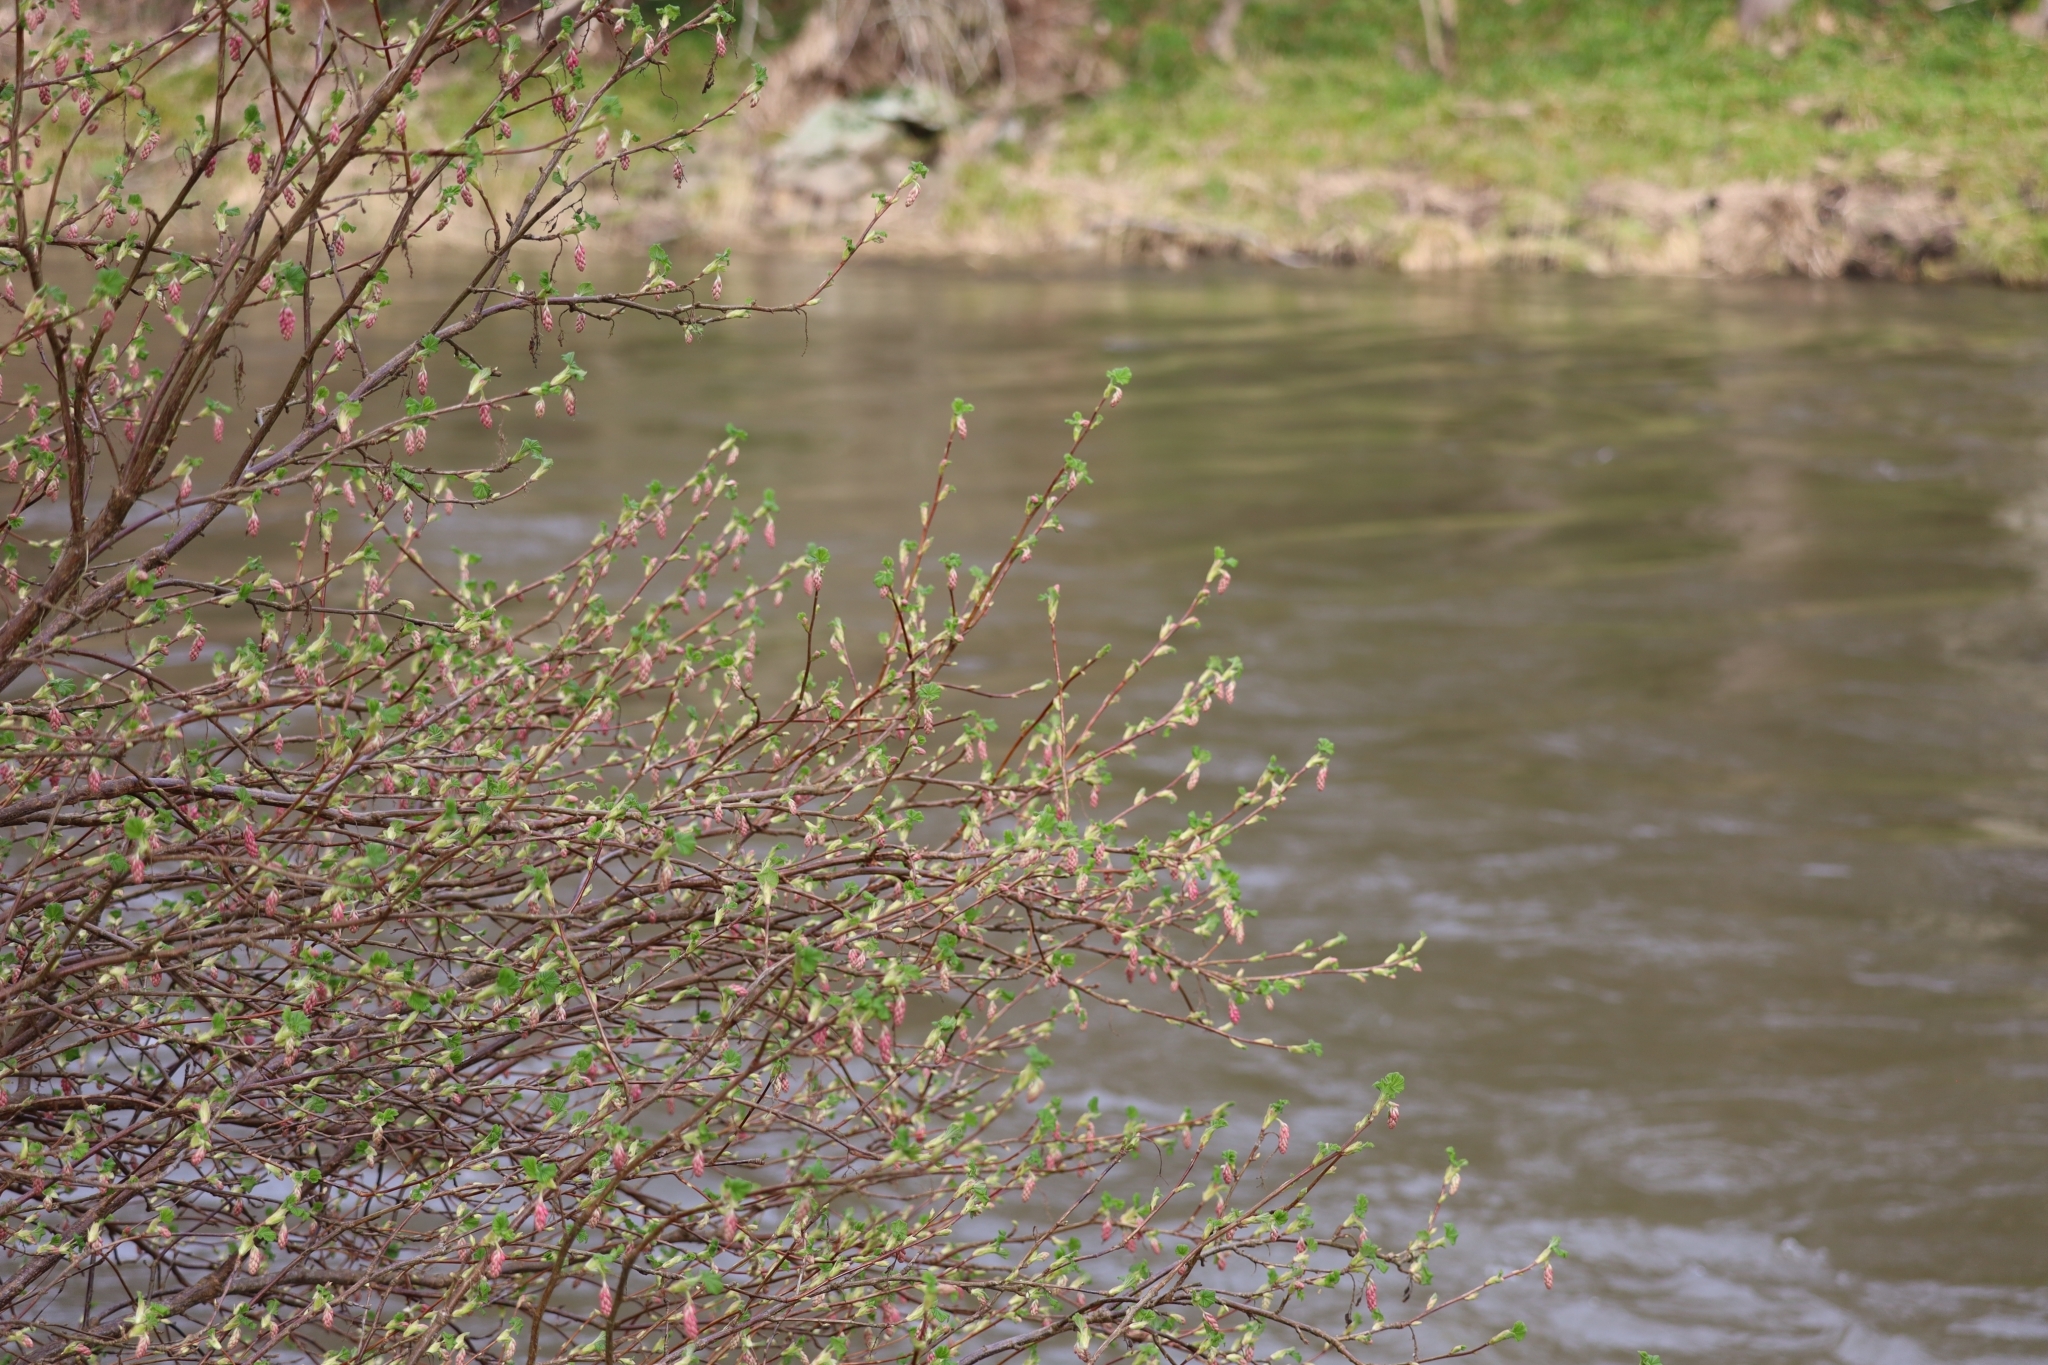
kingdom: Plantae
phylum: Tracheophyta
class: Magnoliopsida
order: Saxifragales
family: Grossulariaceae
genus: Ribes
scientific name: Ribes sanguineum
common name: Flowering currant
